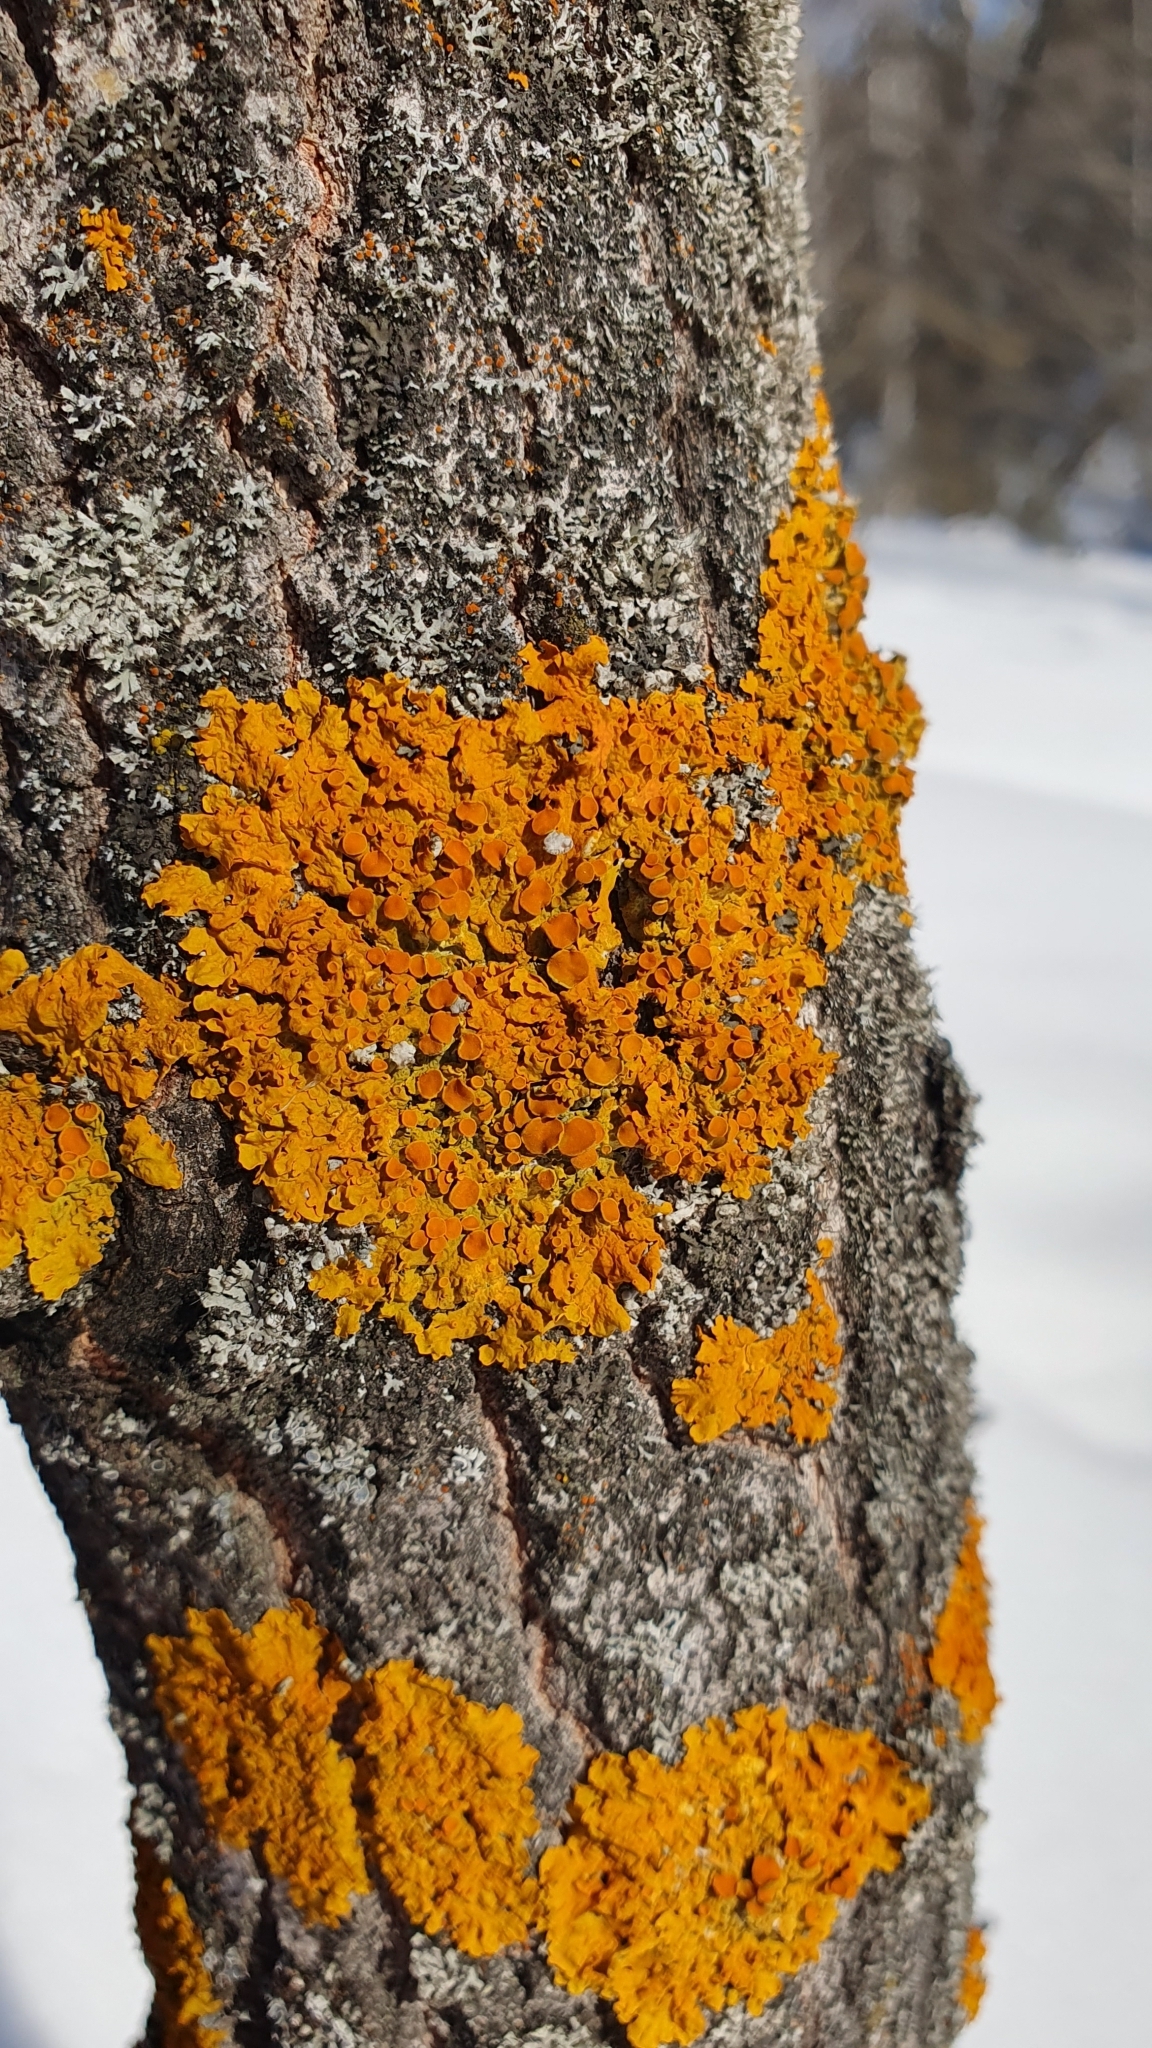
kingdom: Fungi
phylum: Ascomycota
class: Lecanoromycetes
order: Teloschistales
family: Teloschistaceae
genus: Xanthoria
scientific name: Xanthoria parietina
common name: Common orange lichen
